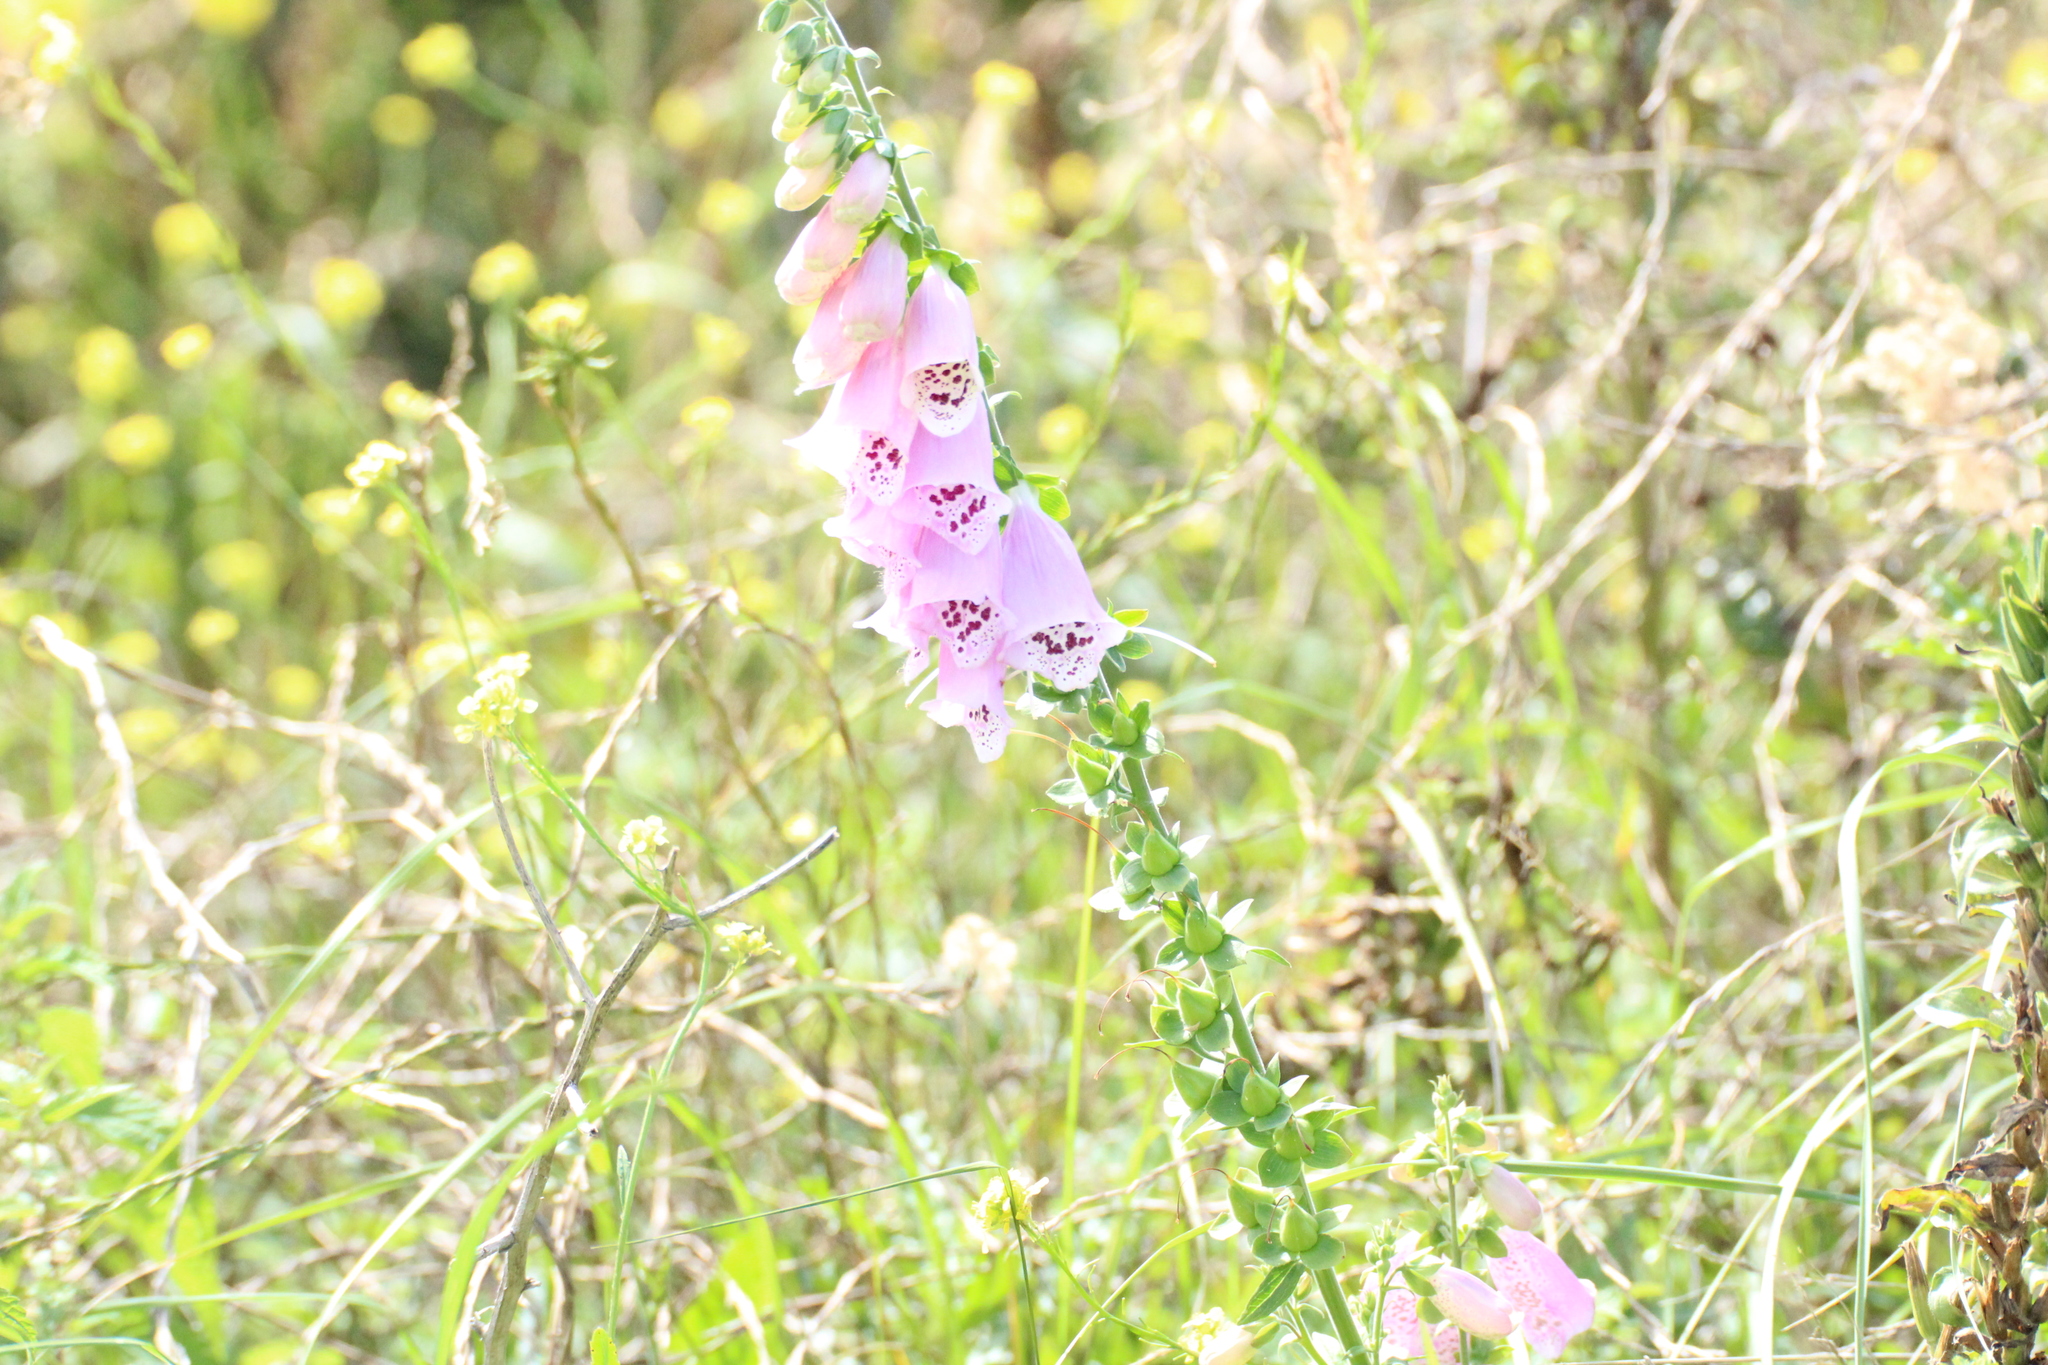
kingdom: Plantae
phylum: Tracheophyta
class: Magnoliopsida
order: Lamiales
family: Plantaginaceae
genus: Digitalis
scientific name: Digitalis purpurea
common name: Foxglove
